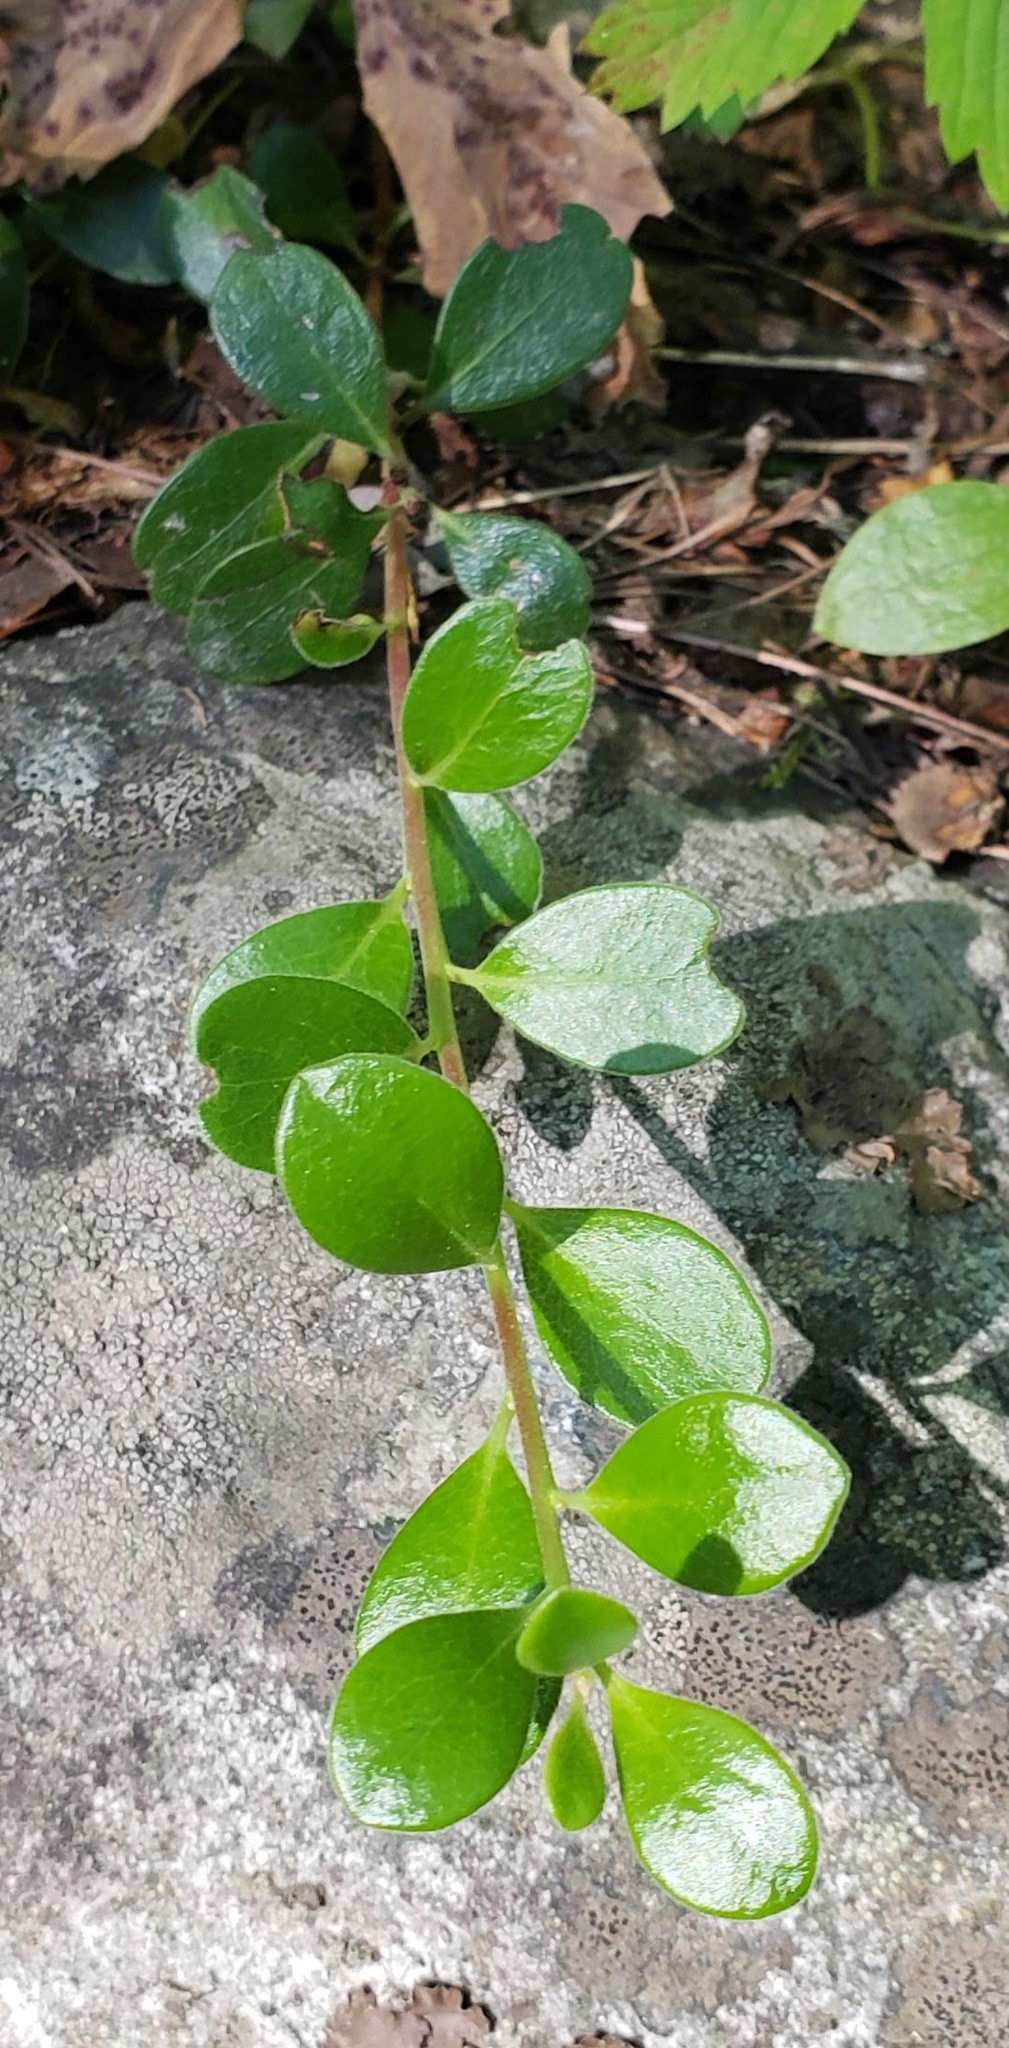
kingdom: Plantae
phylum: Tracheophyta
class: Magnoliopsida
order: Ericales
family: Ericaceae
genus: Arctostaphylos
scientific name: Arctostaphylos uva-ursi
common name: Bearberry
